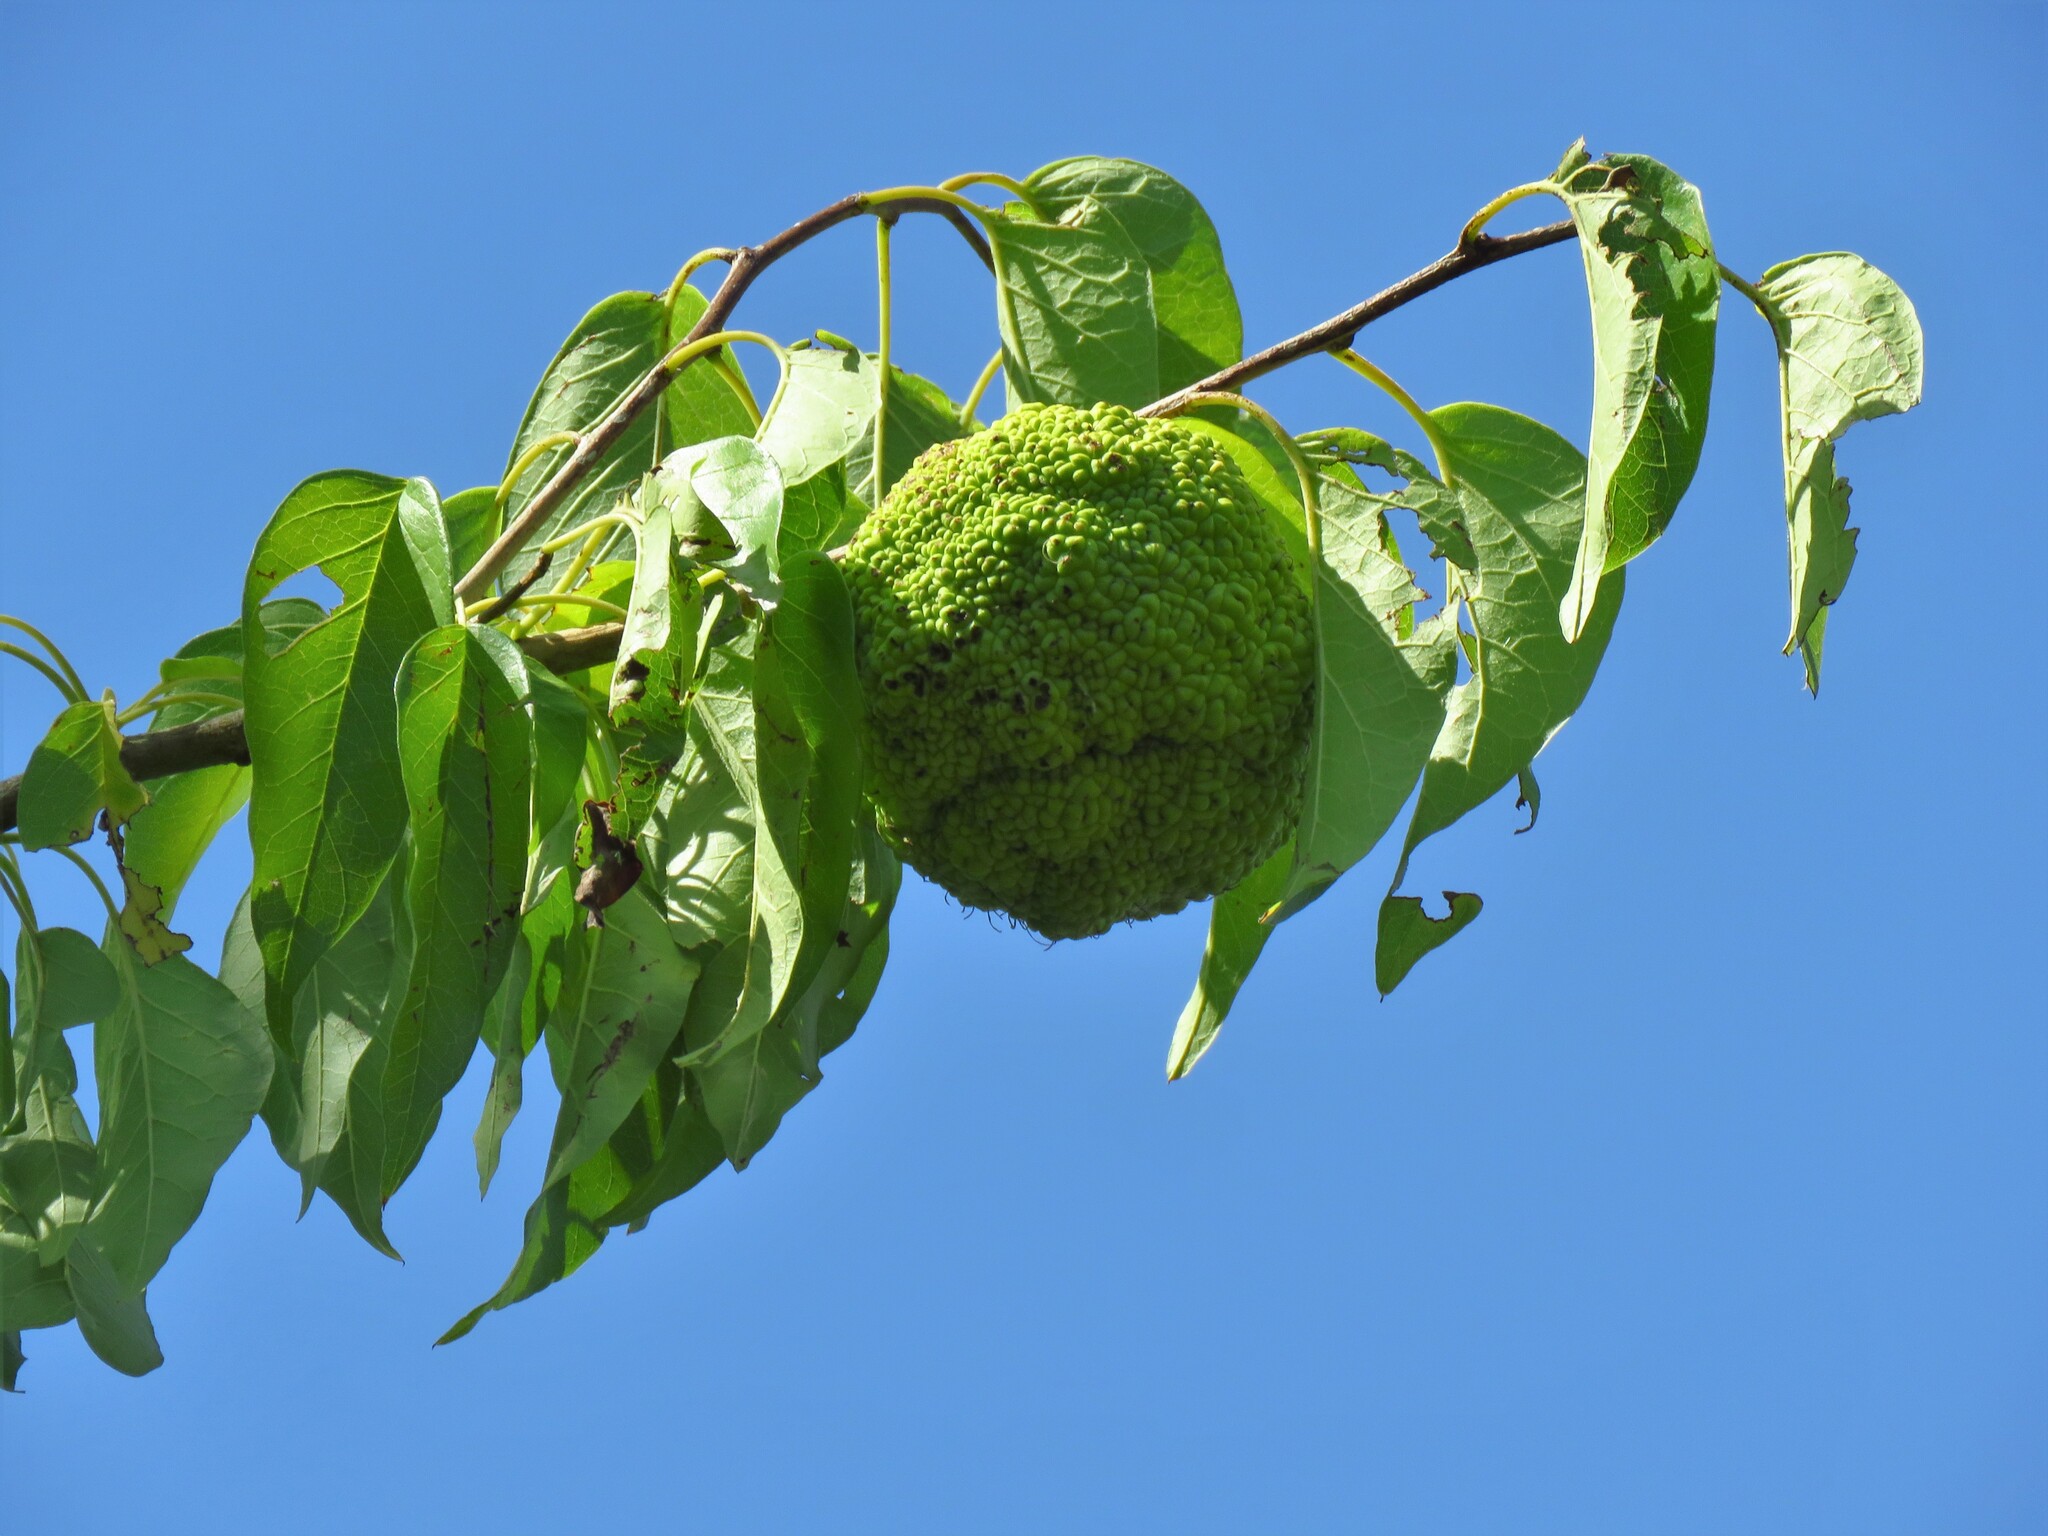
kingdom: Plantae
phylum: Tracheophyta
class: Magnoliopsida
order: Rosales
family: Moraceae
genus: Maclura
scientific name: Maclura pomifera
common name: Osage-orange
